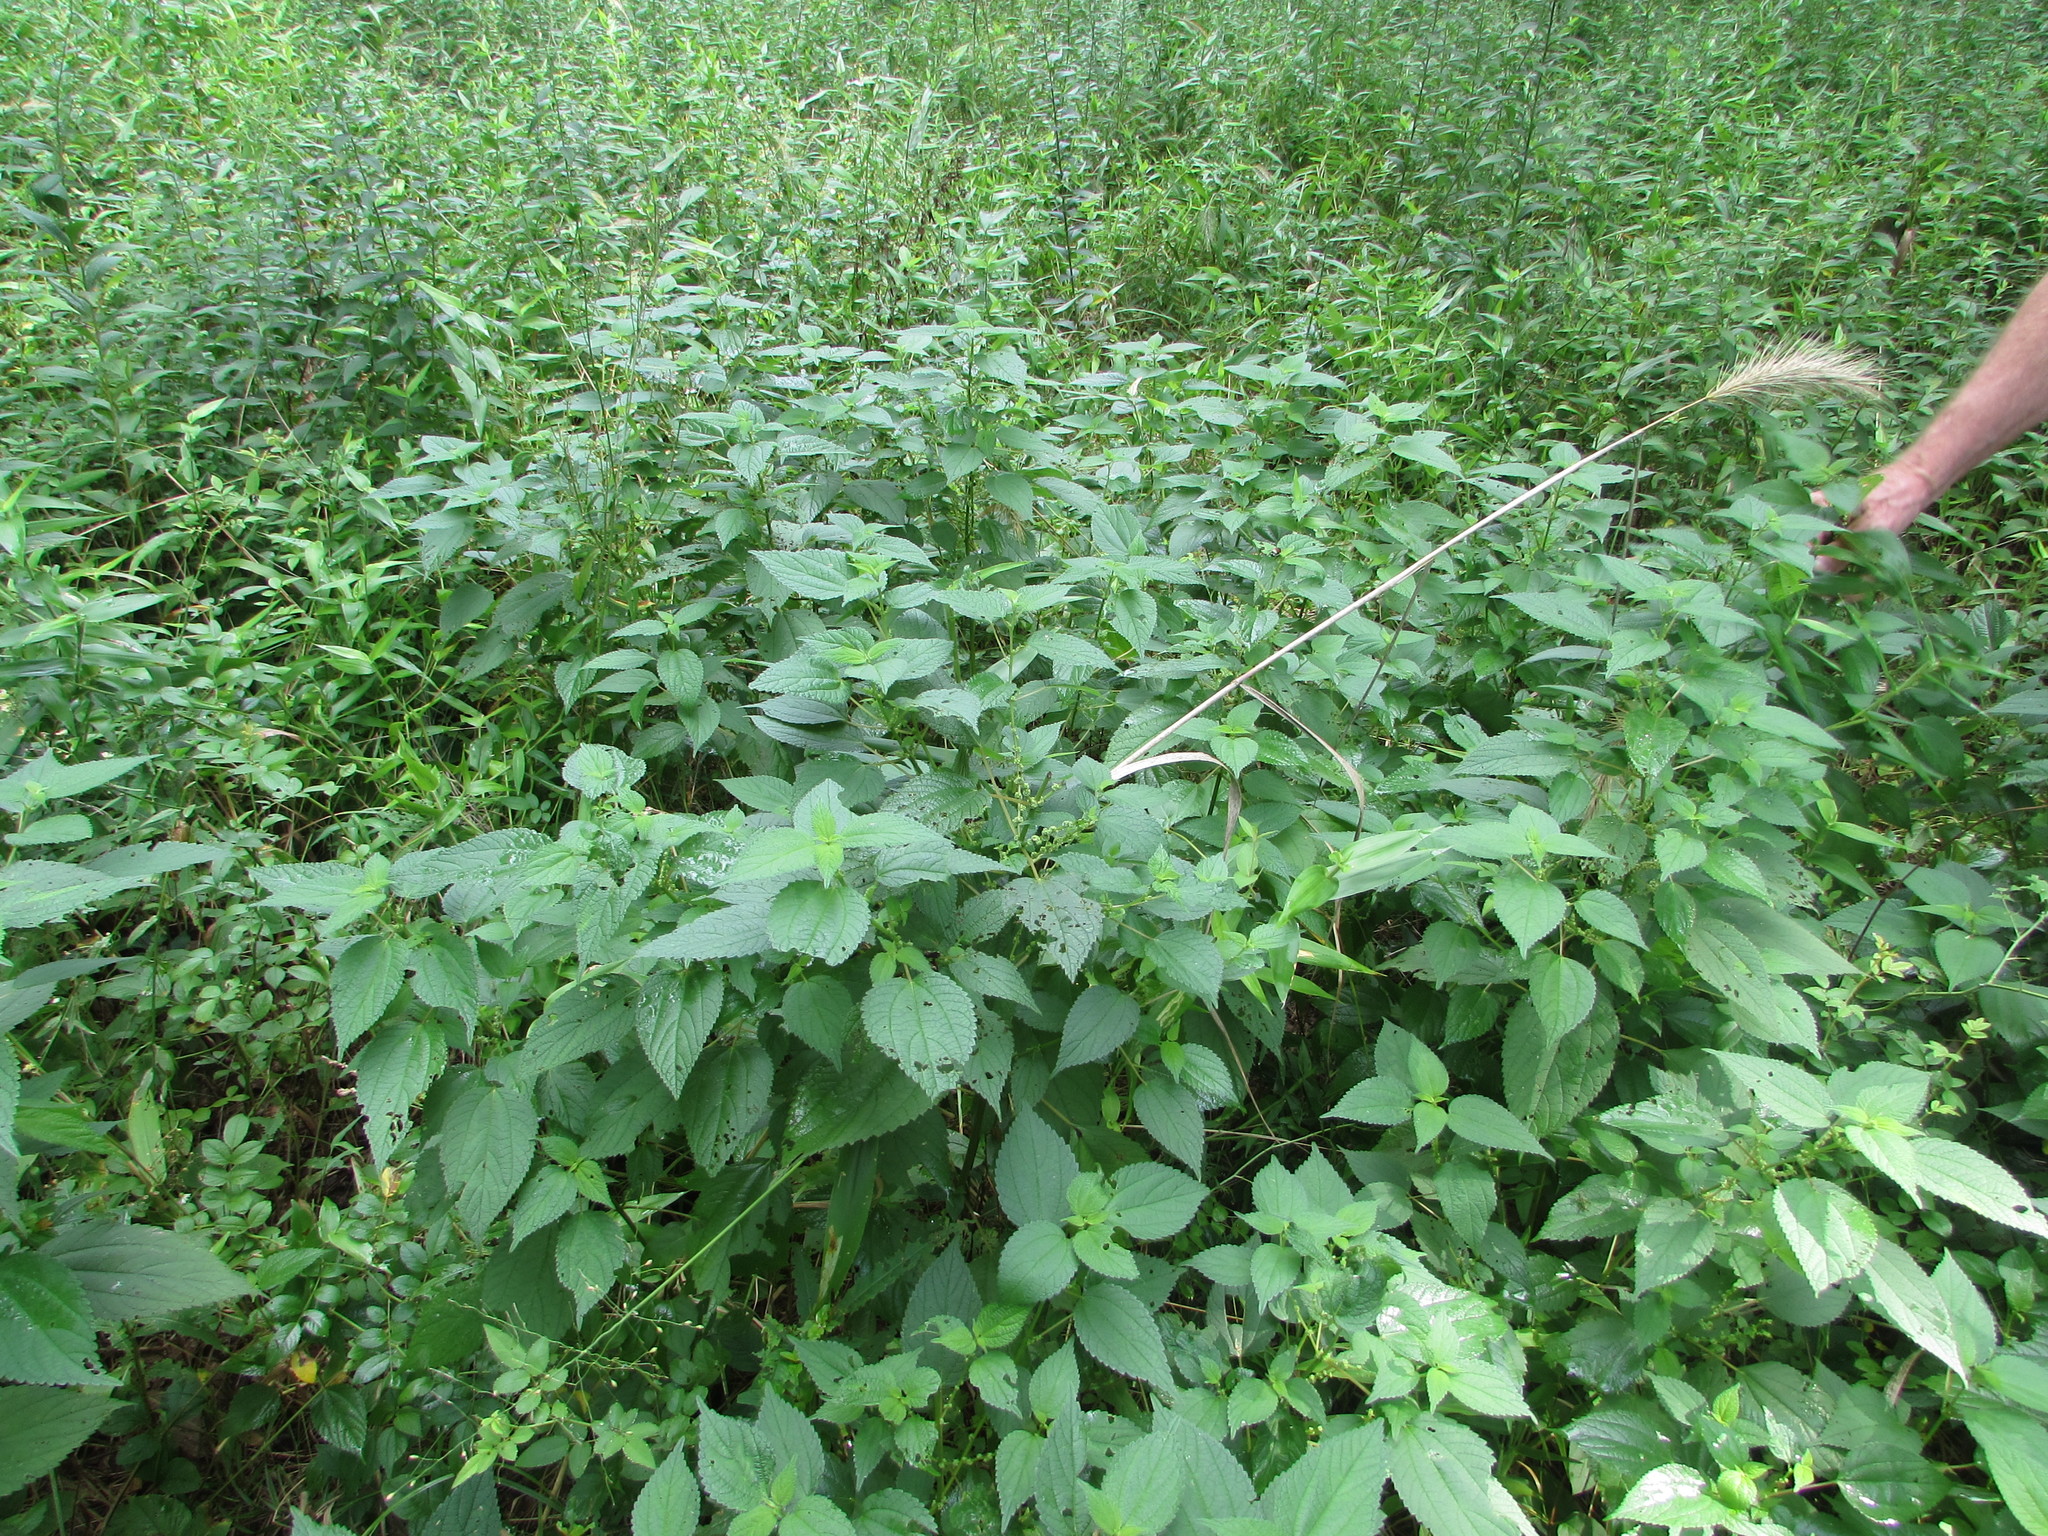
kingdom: Plantae
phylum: Tracheophyta
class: Magnoliopsida
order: Rosales
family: Urticaceae
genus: Boehmeria
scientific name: Boehmeria cylindrica
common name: Bog-hemp
